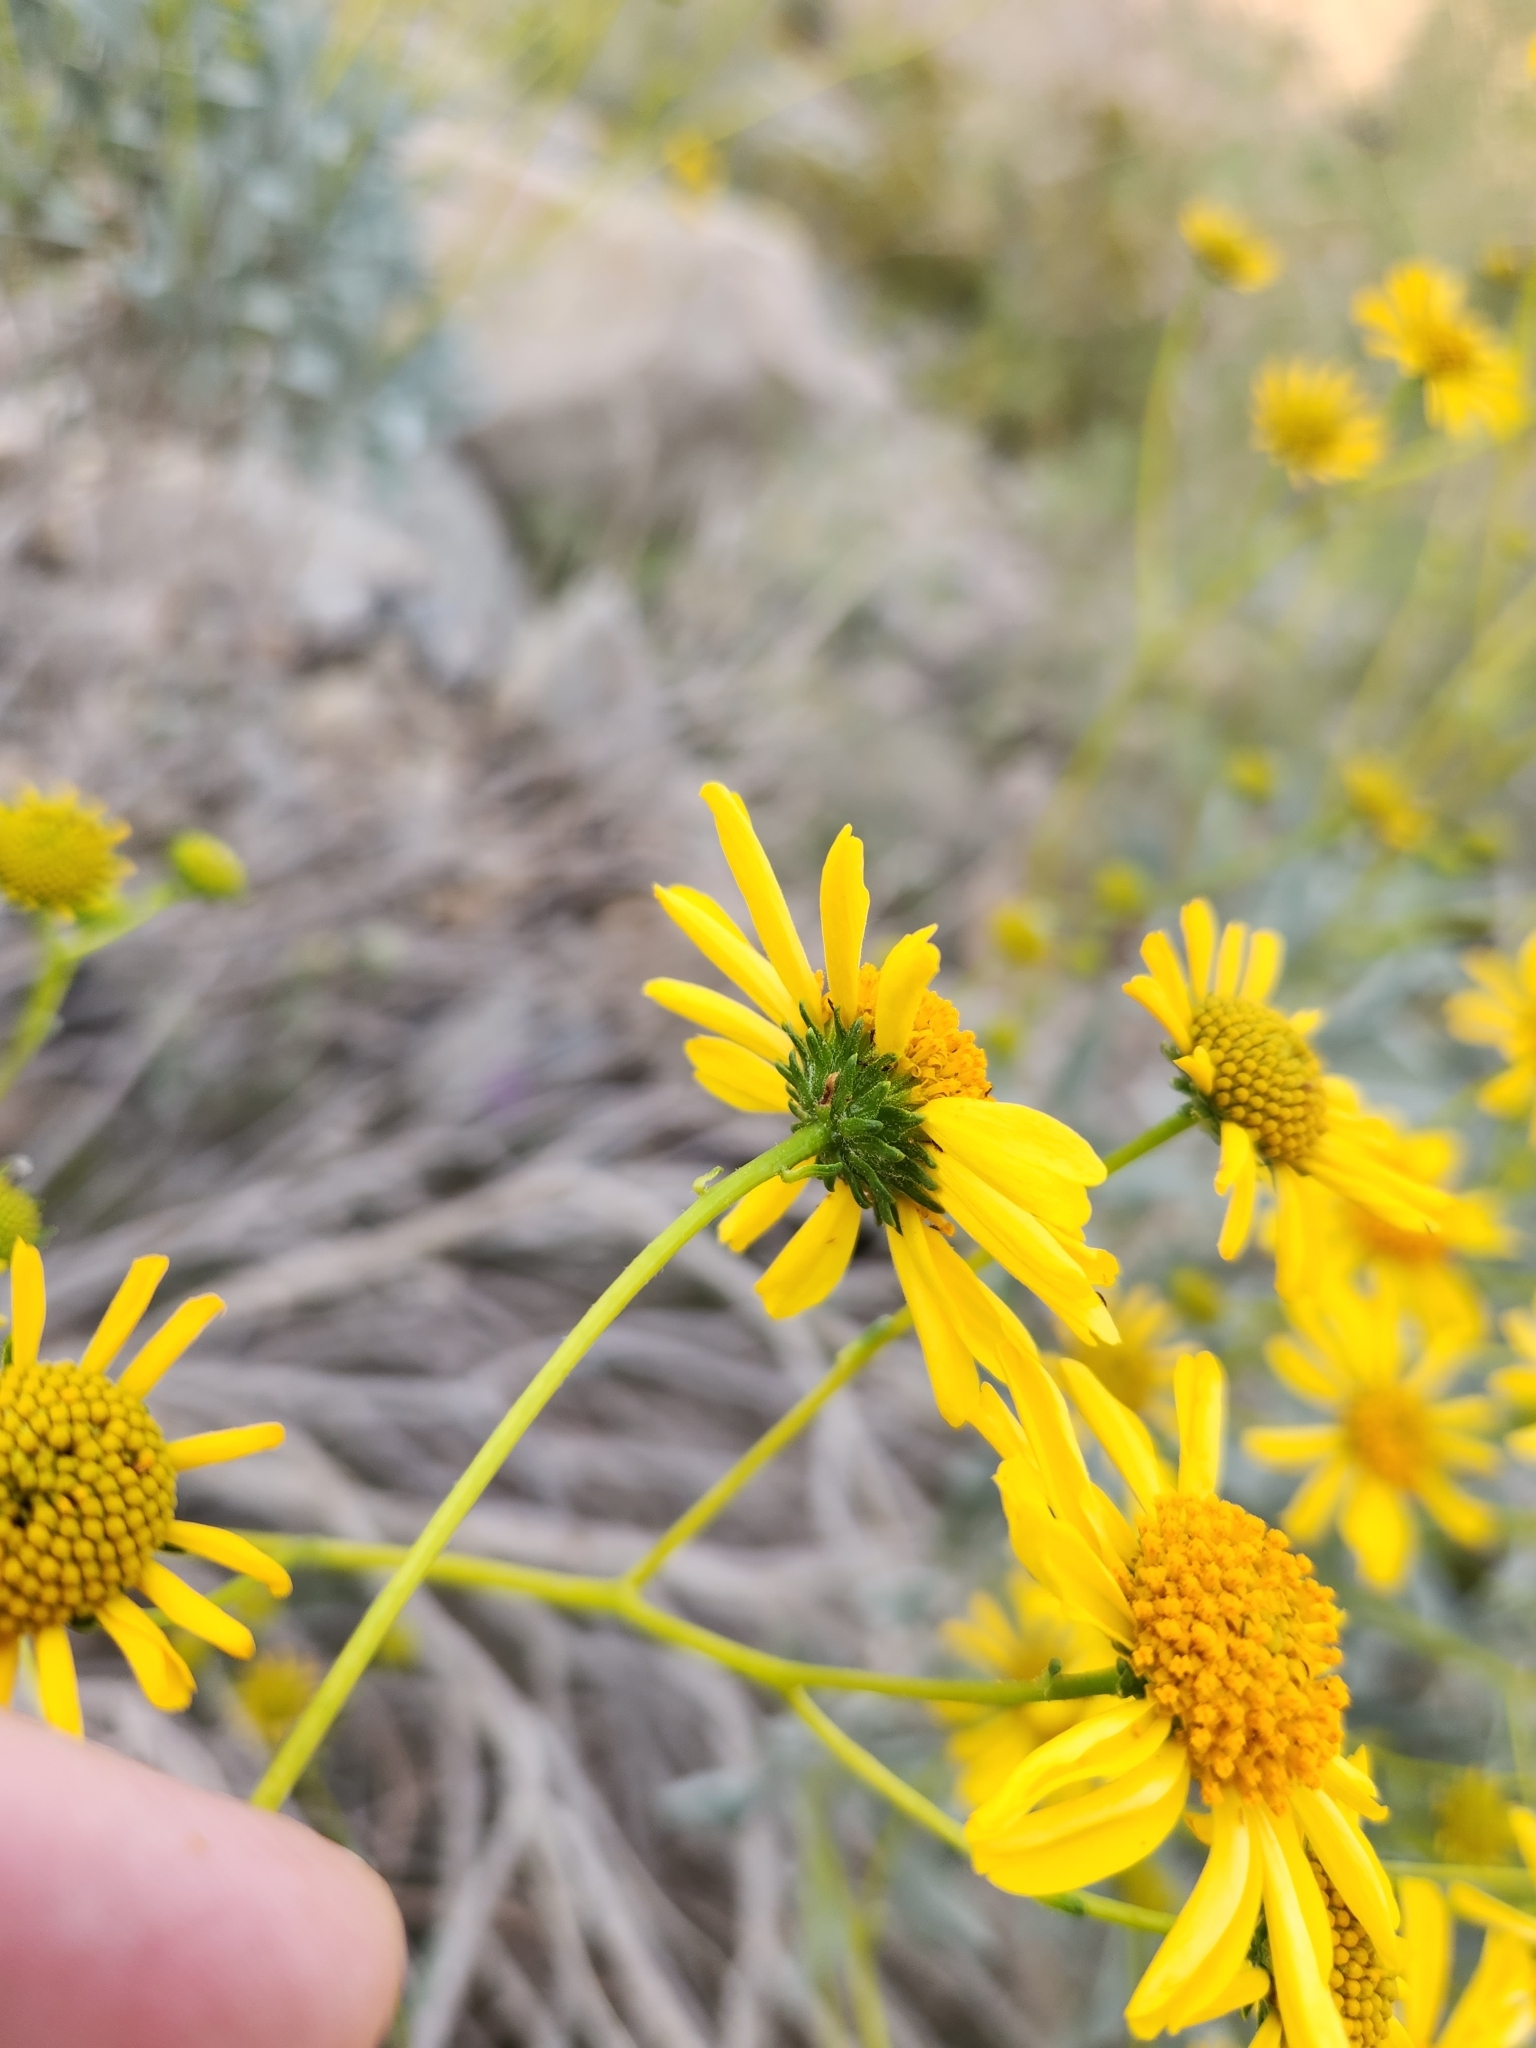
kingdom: Plantae
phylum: Tracheophyta
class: Magnoliopsida
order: Asterales
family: Asteraceae
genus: Encelia
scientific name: Encelia farinosa
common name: Brittlebush
